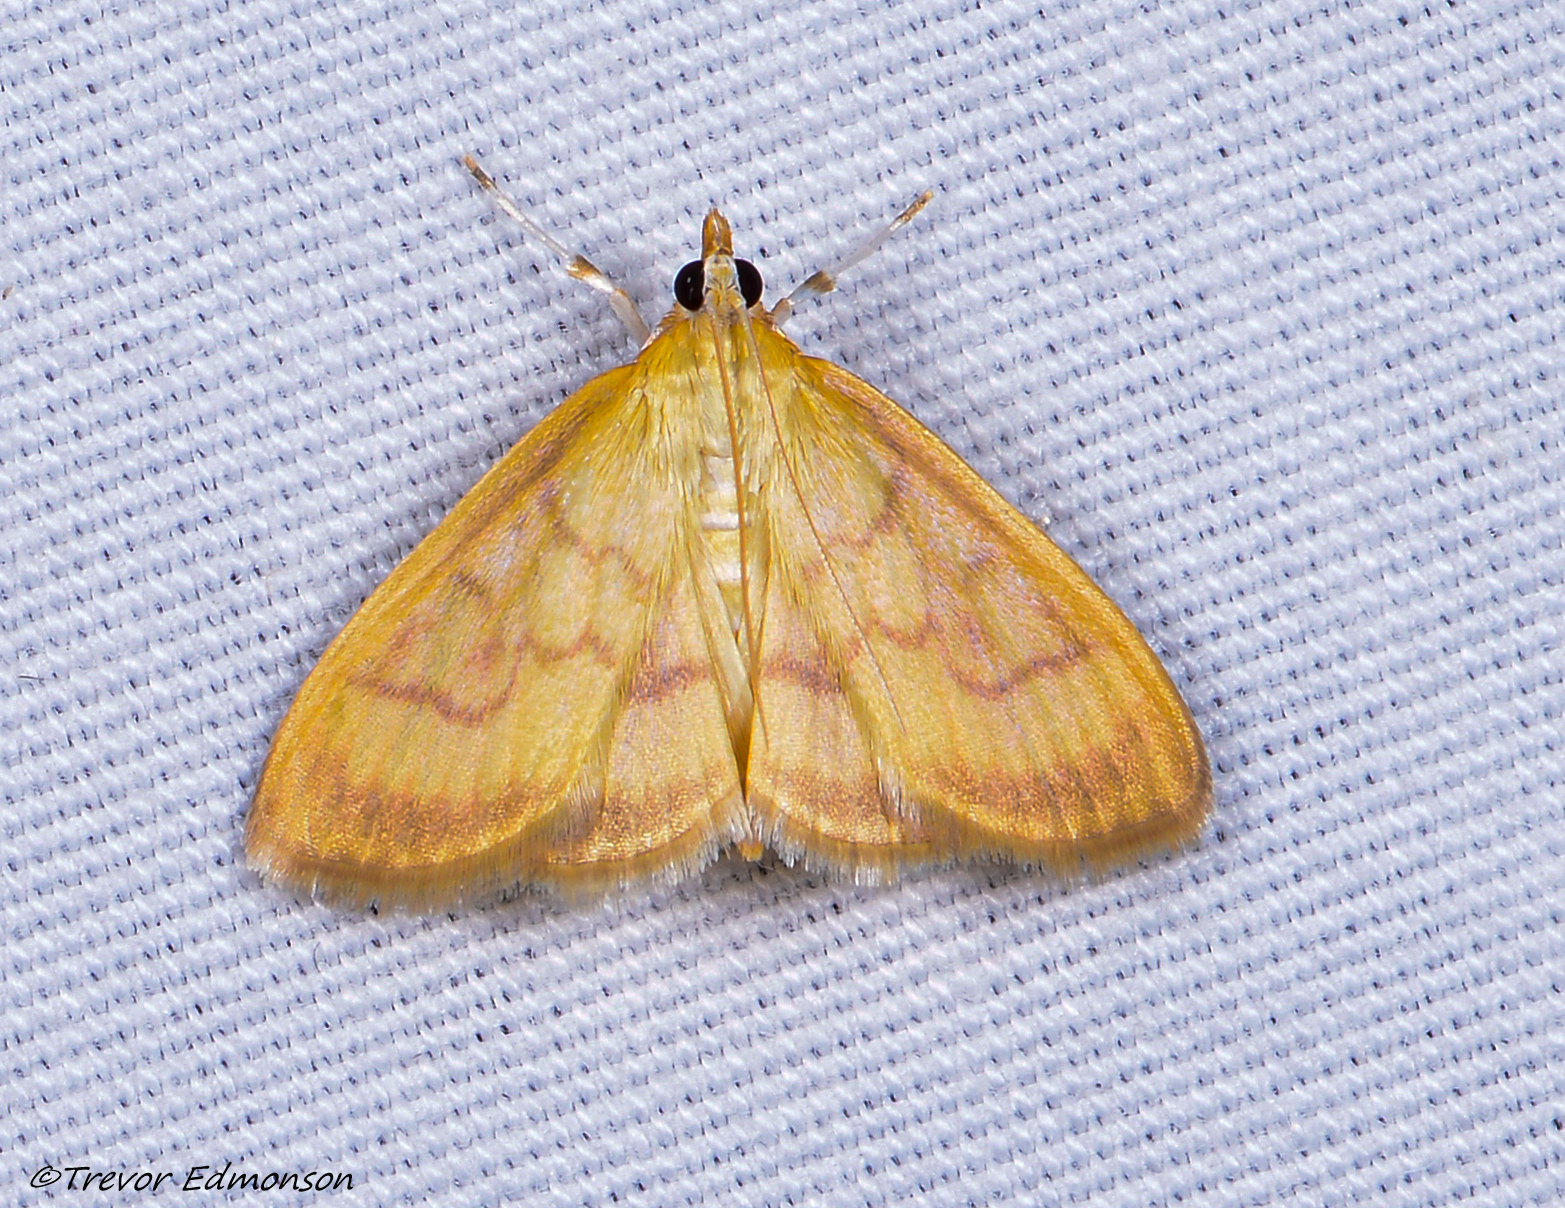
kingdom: Animalia
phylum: Arthropoda
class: Insecta
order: Lepidoptera
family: Crambidae
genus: Crocidophora
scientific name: Crocidophora tuberculalis
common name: Pale-winged crocidiphora moth
